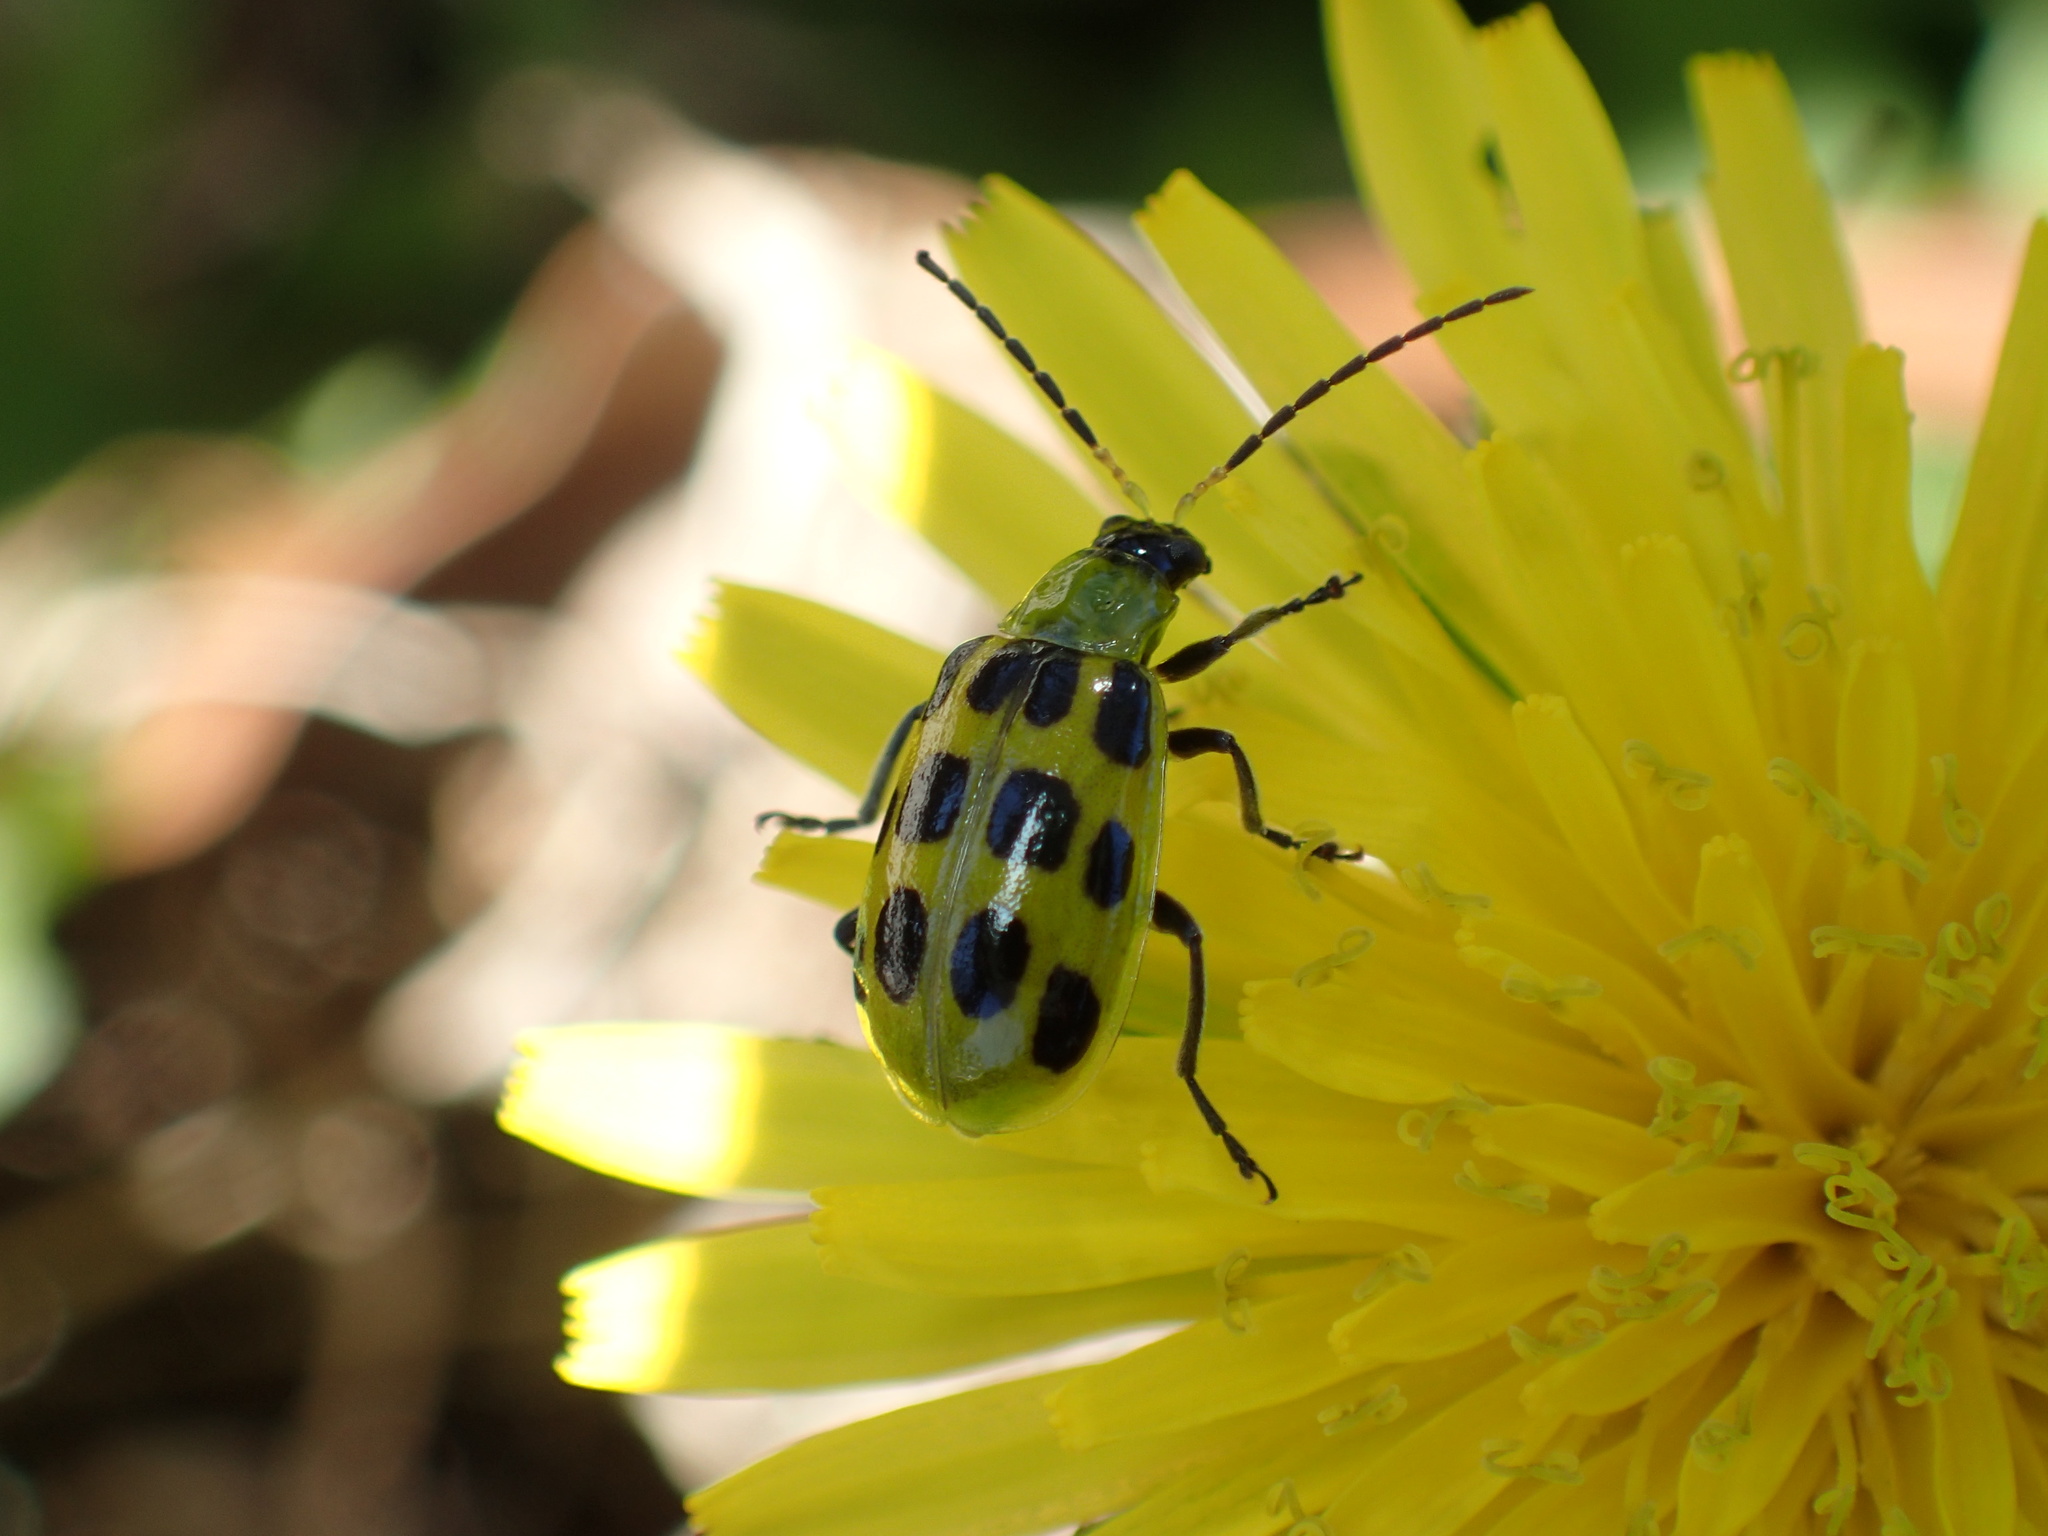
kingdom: Animalia
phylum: Arthropoda
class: Insecta
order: Coleoptera
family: Chrysomelidae
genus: Diabrotica
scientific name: Diabrotica undecimpunctata
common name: Spotted cucumber beetle
